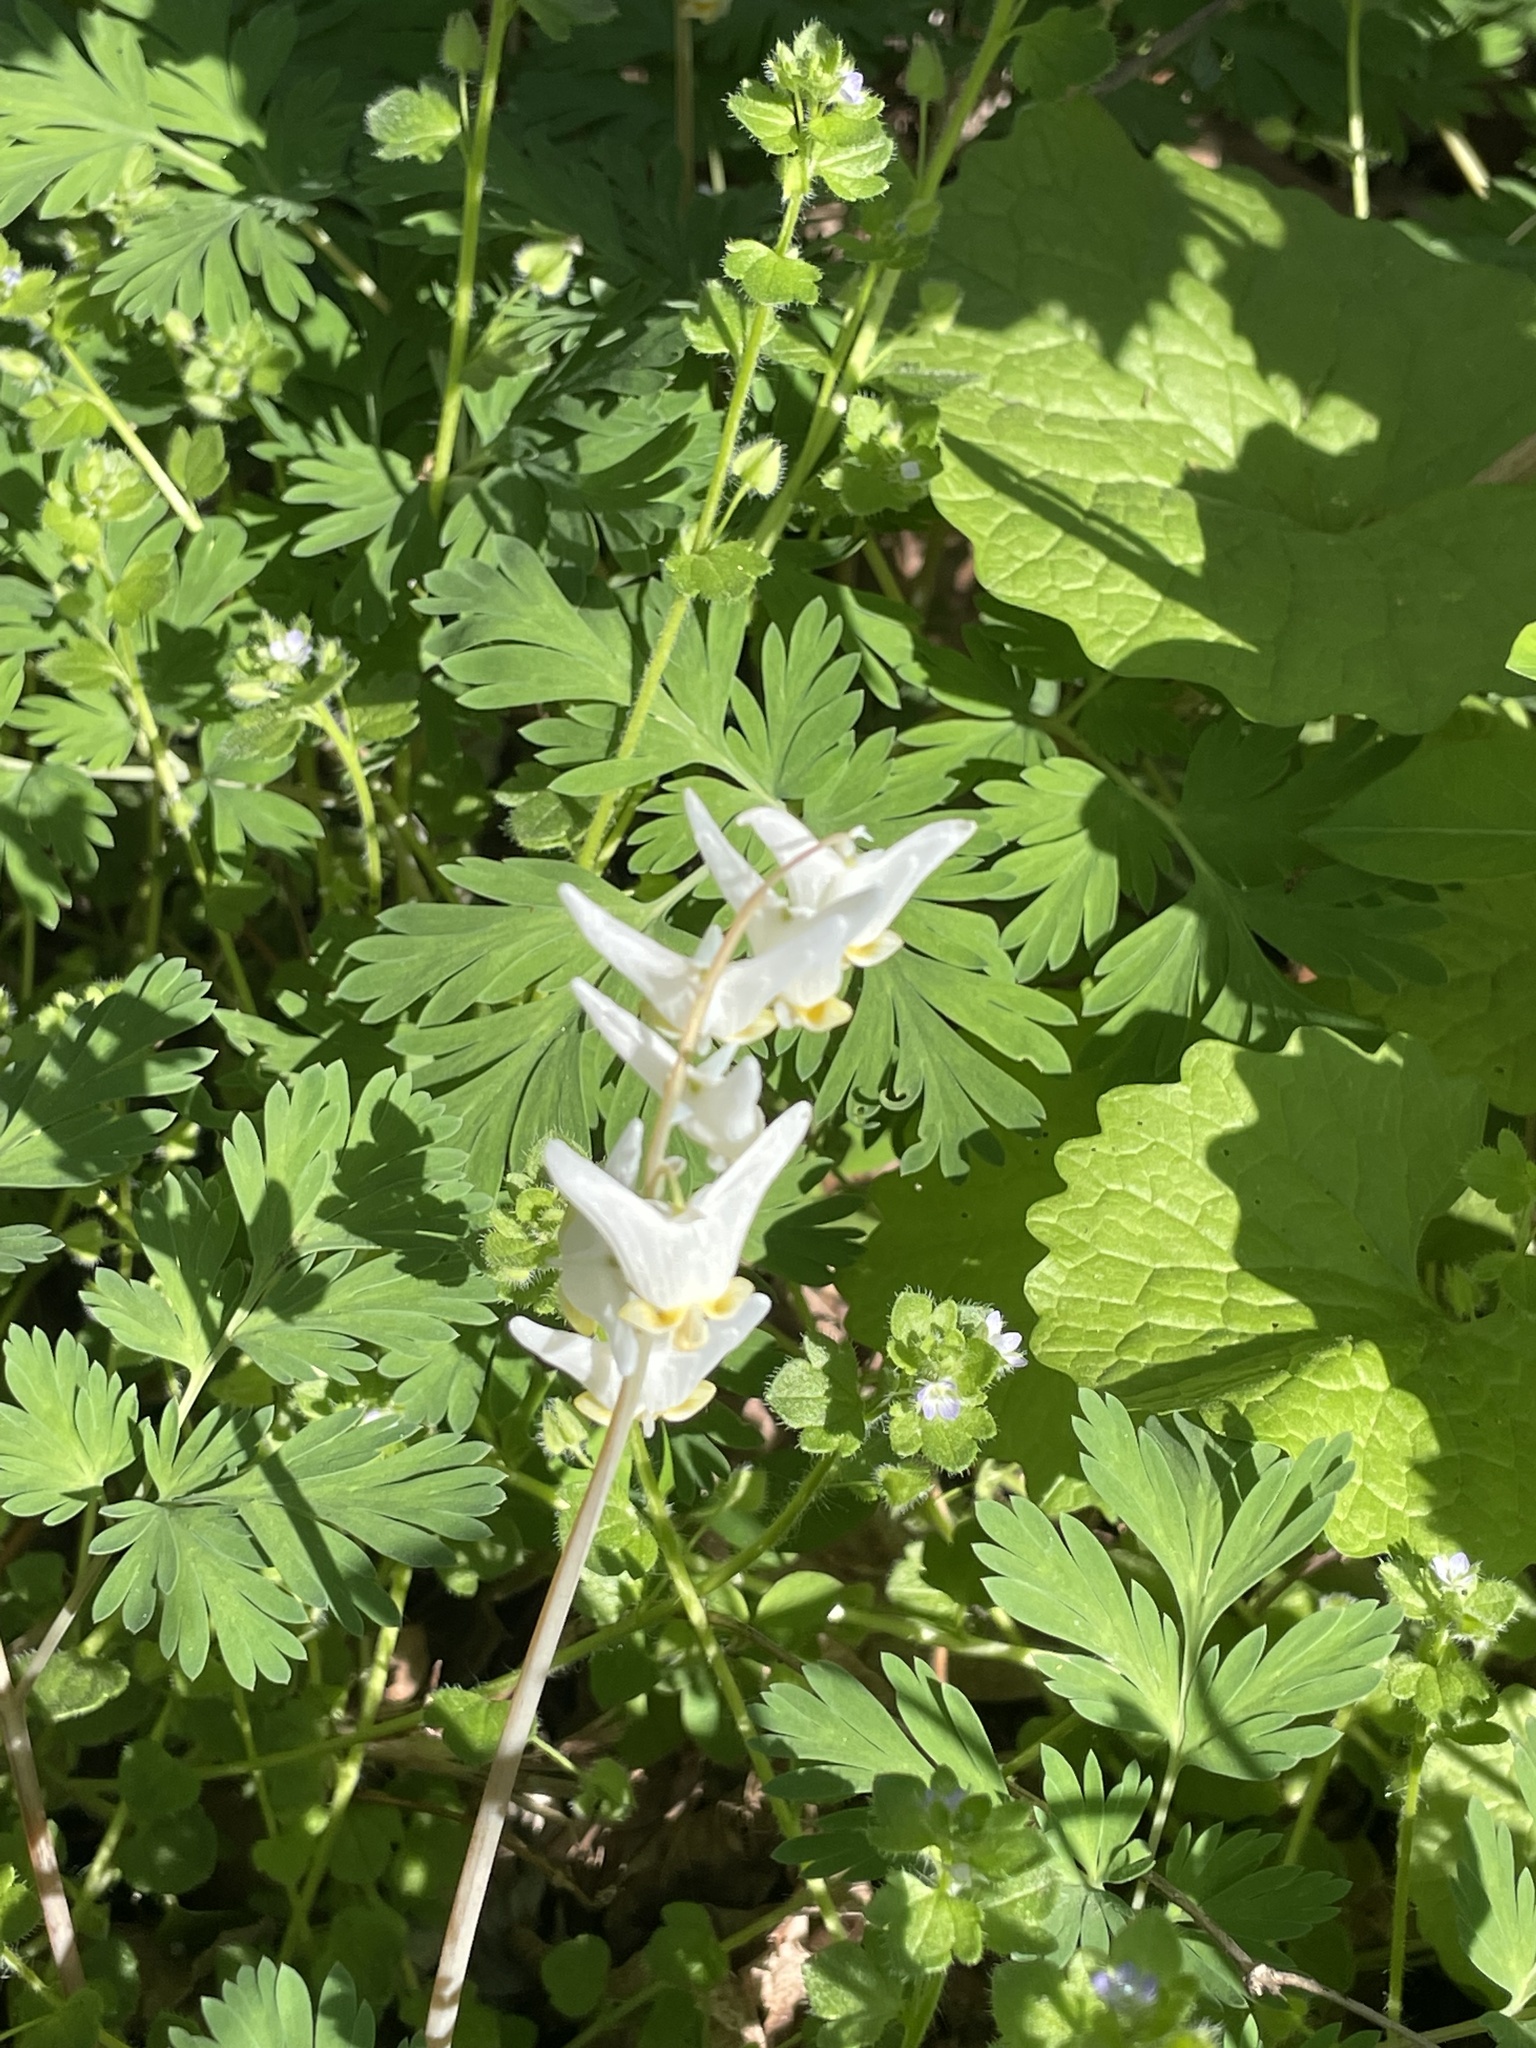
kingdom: Plantae
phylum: Tracheophyta
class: Magnoliopsida
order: Ranunculales
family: Papaveraceae
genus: Dicentra
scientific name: Dicentra cucullaria
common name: Dutchman's breeches
